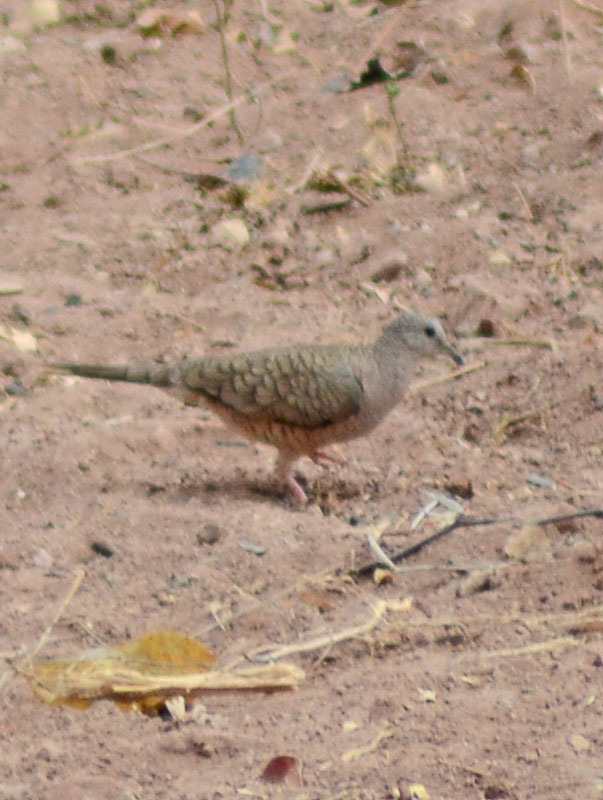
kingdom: Animalia
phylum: Chordata
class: Aves
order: Columbiformes
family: Columbidae
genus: Columbina
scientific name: Columbina inca
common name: Inca dove
